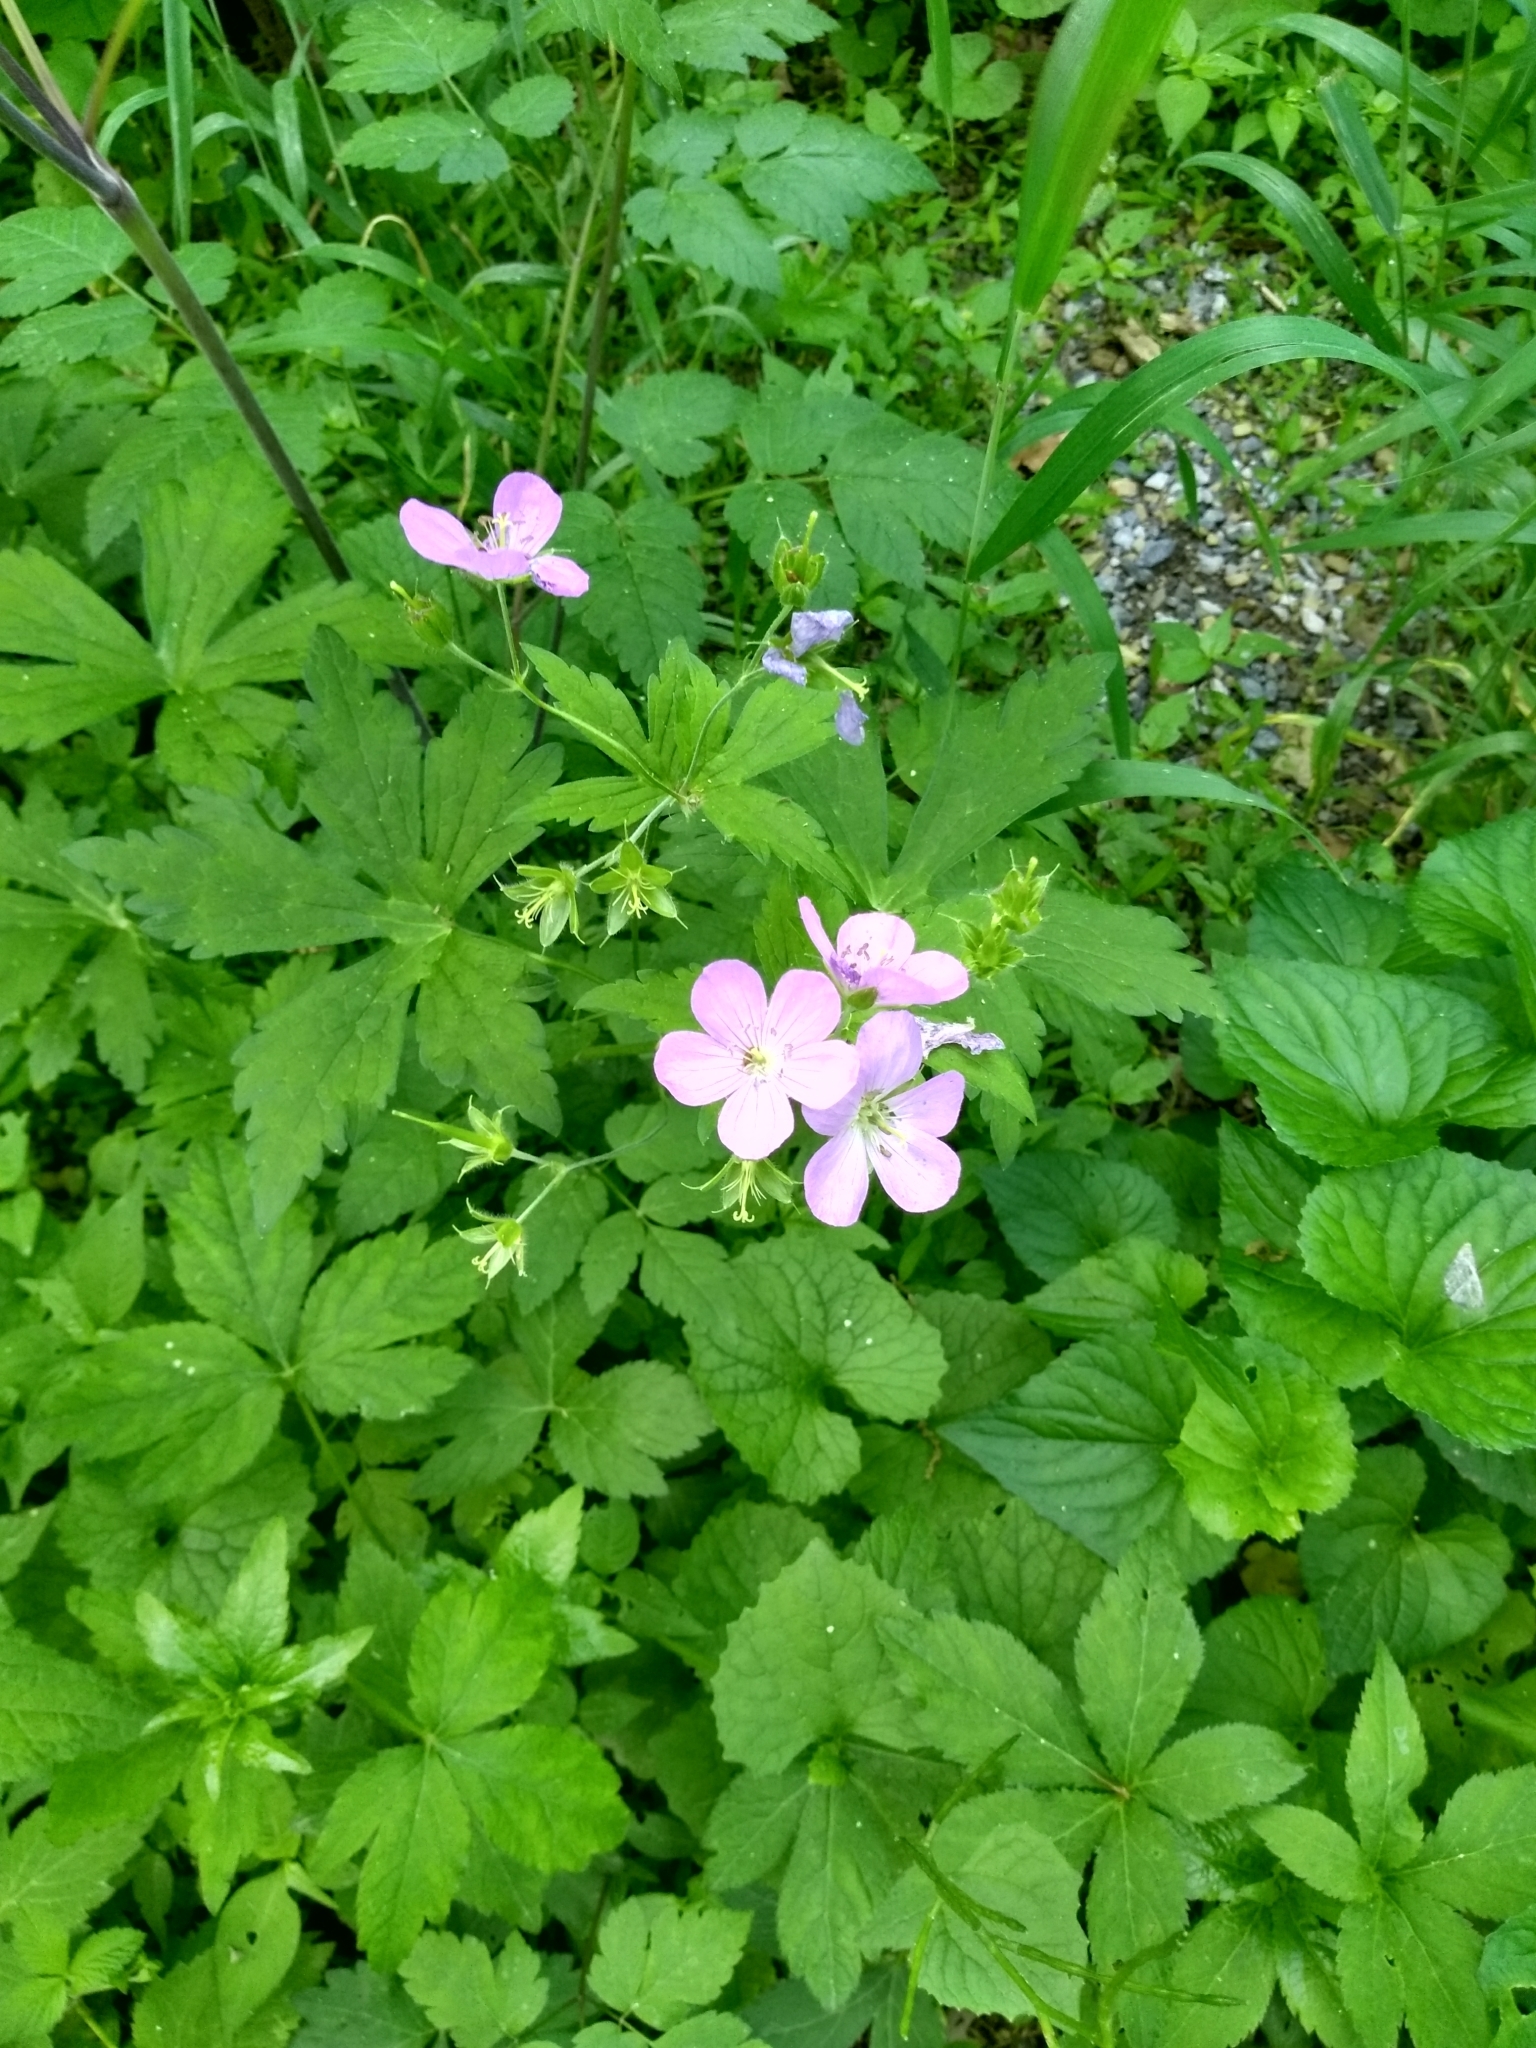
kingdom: Plantae
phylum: Tracheophyta
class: Magnoliopsida
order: Geraniales
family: Geraniaceae
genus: Geranium
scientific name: Geranium maculatum
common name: Spotted geranium
